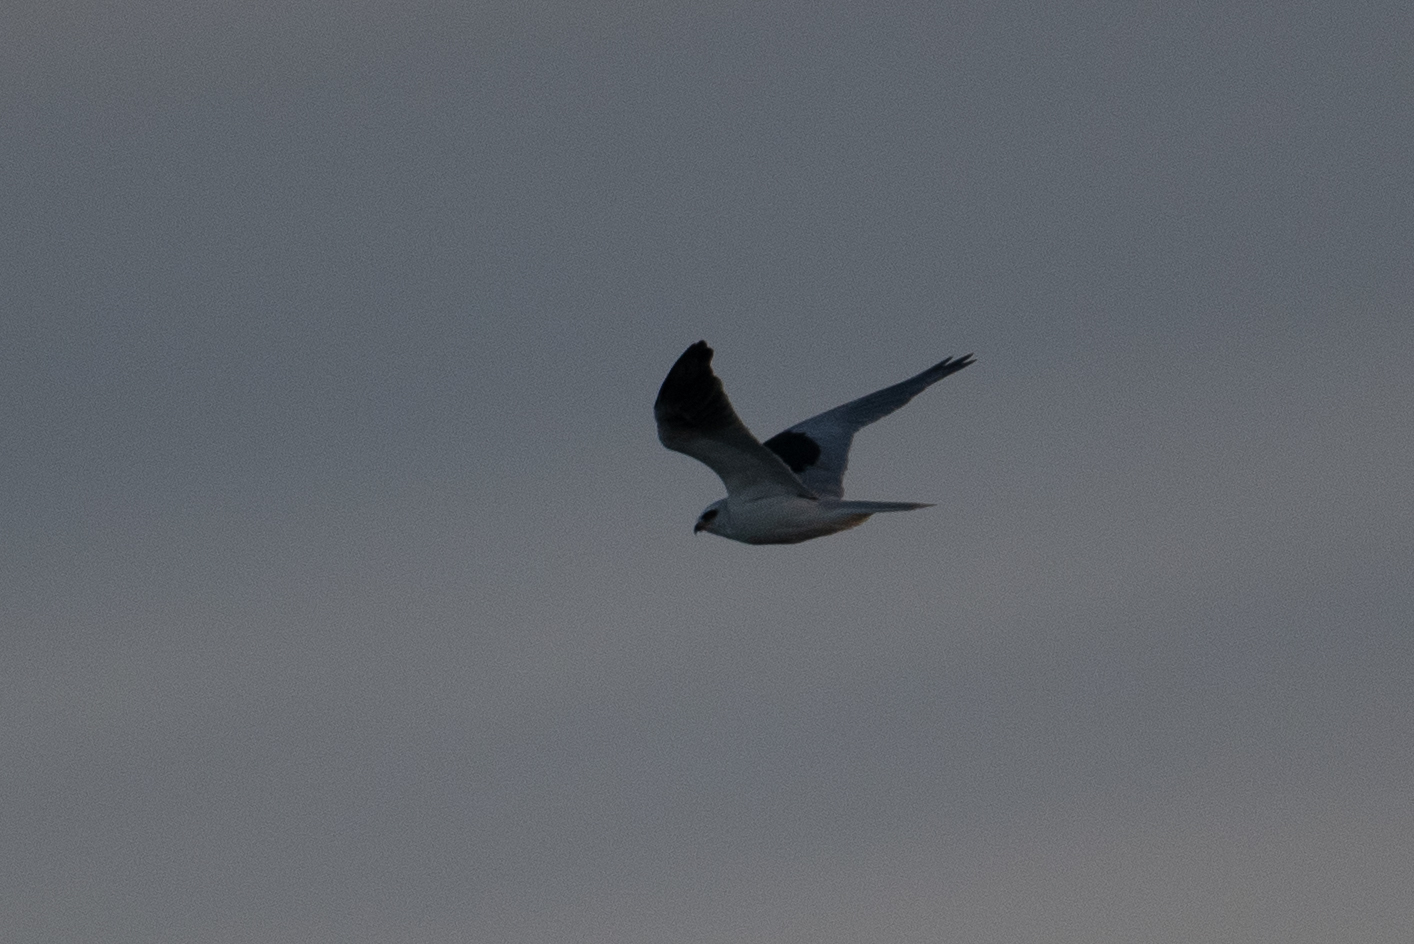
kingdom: Animalia
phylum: Chordata
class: Aves
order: Accipitriformes
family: Accipitridae
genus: Elanus
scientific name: Elanus leucurus
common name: White-tailed kite
